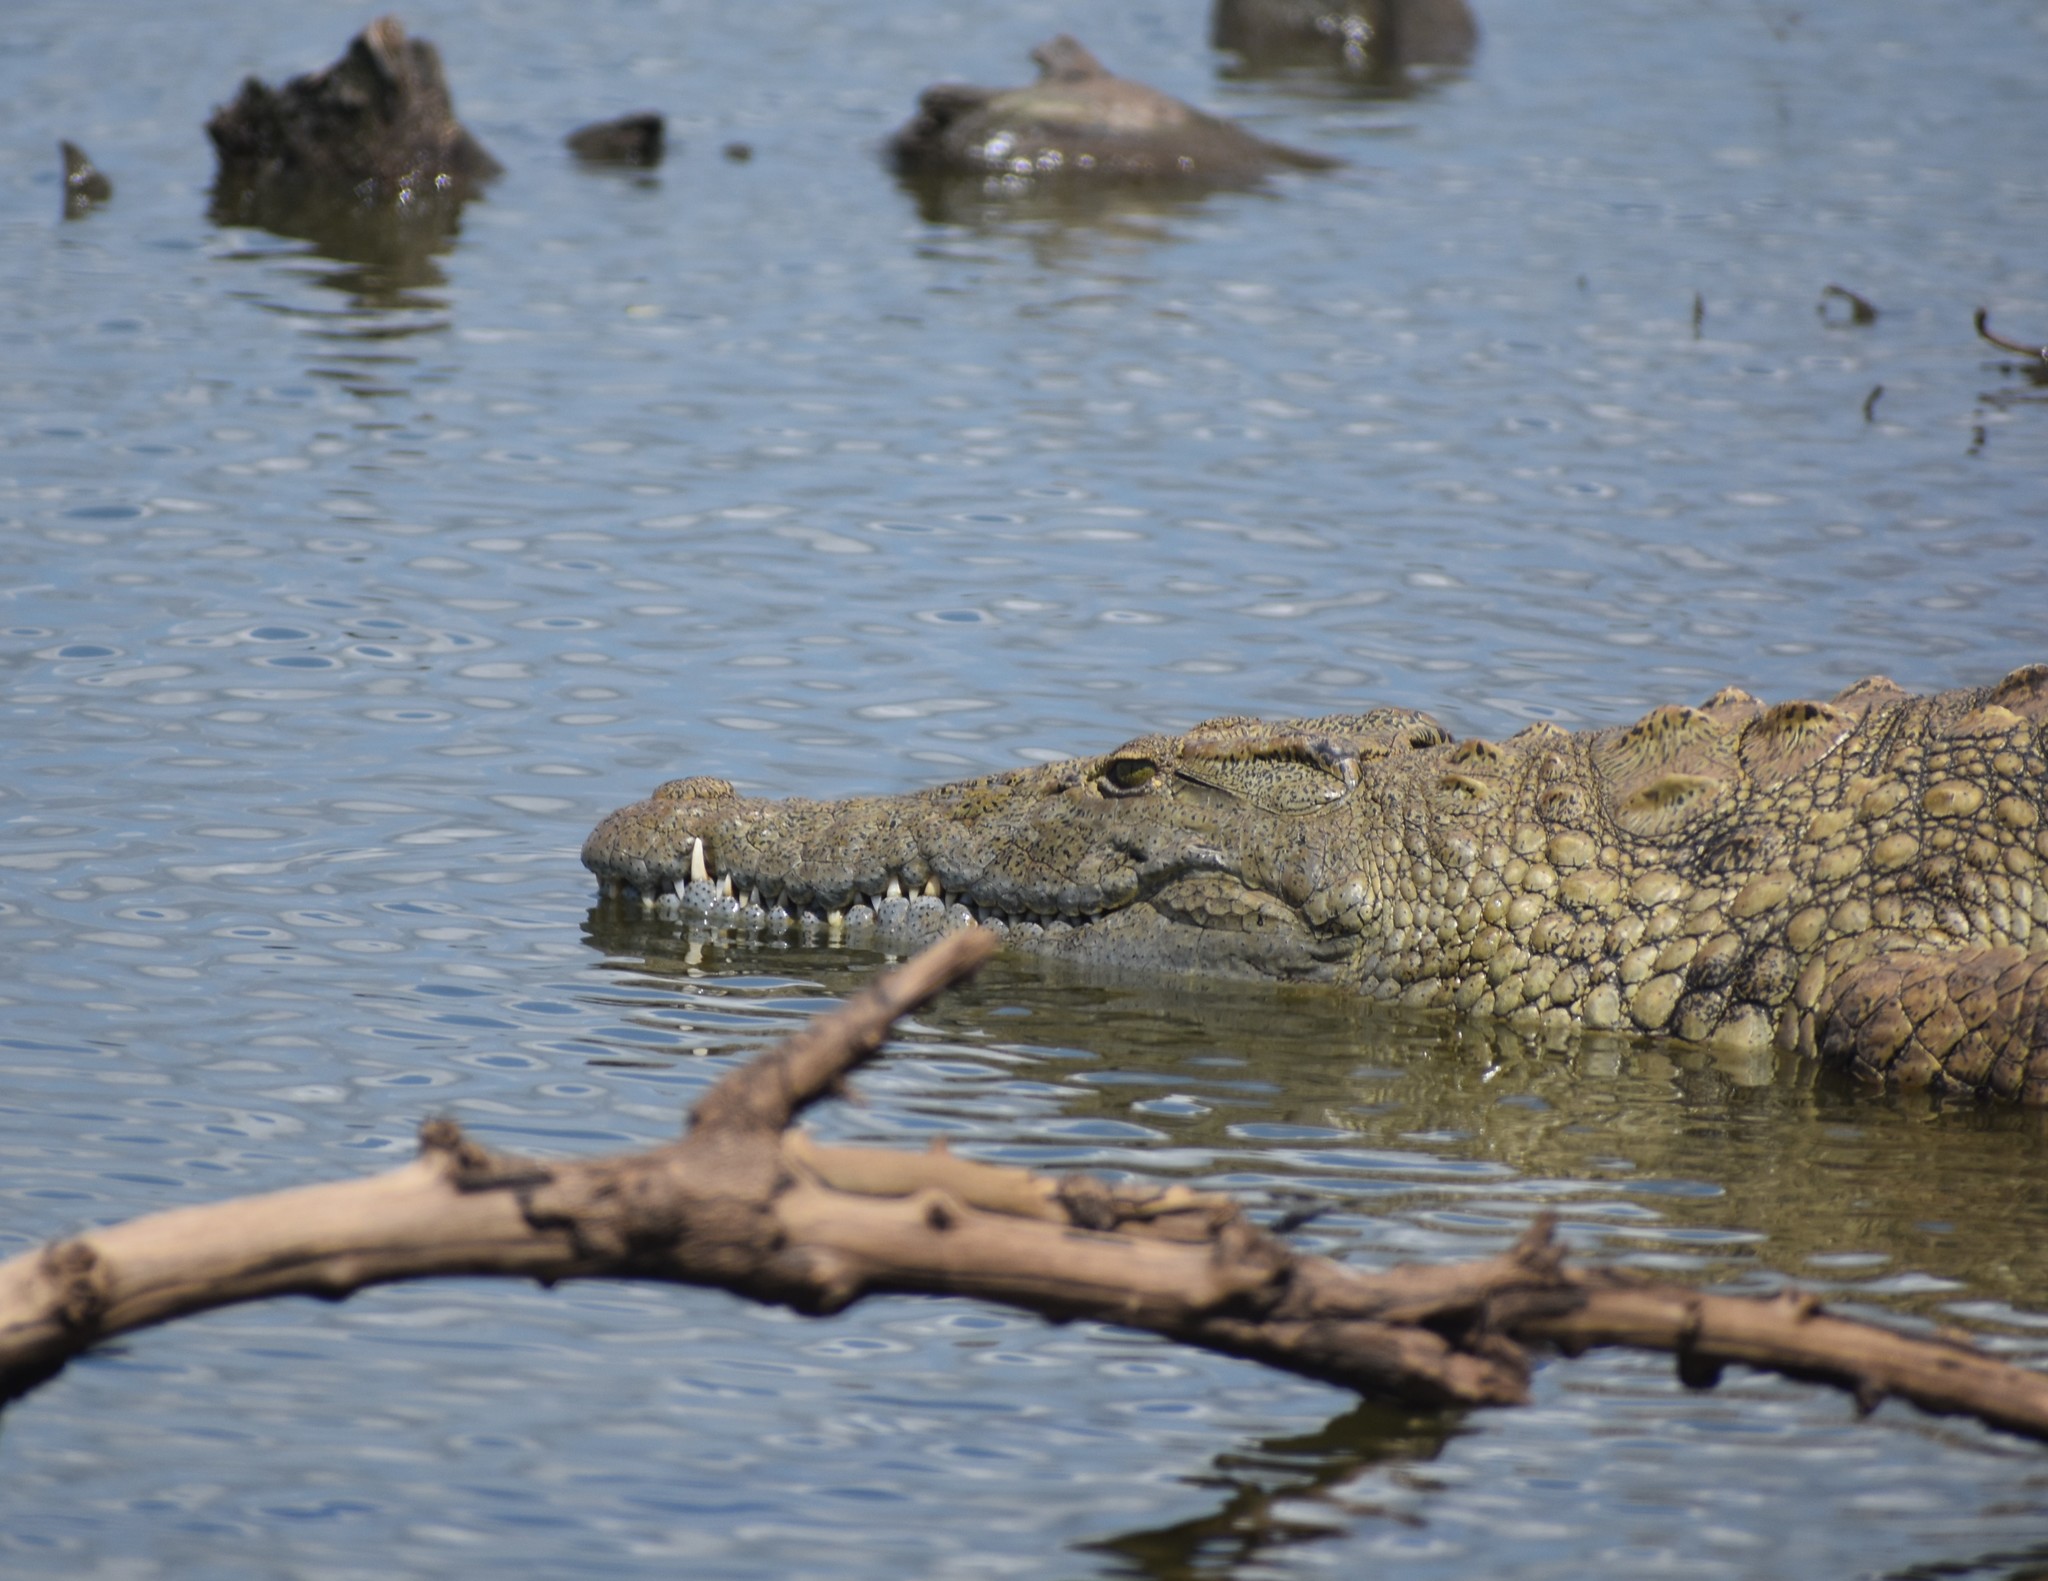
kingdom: Animalia
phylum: Chordata
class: Crocodylia
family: Crocodylidae
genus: Crocodylus
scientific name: Crocodylus niloticus
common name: Nile crocodile
